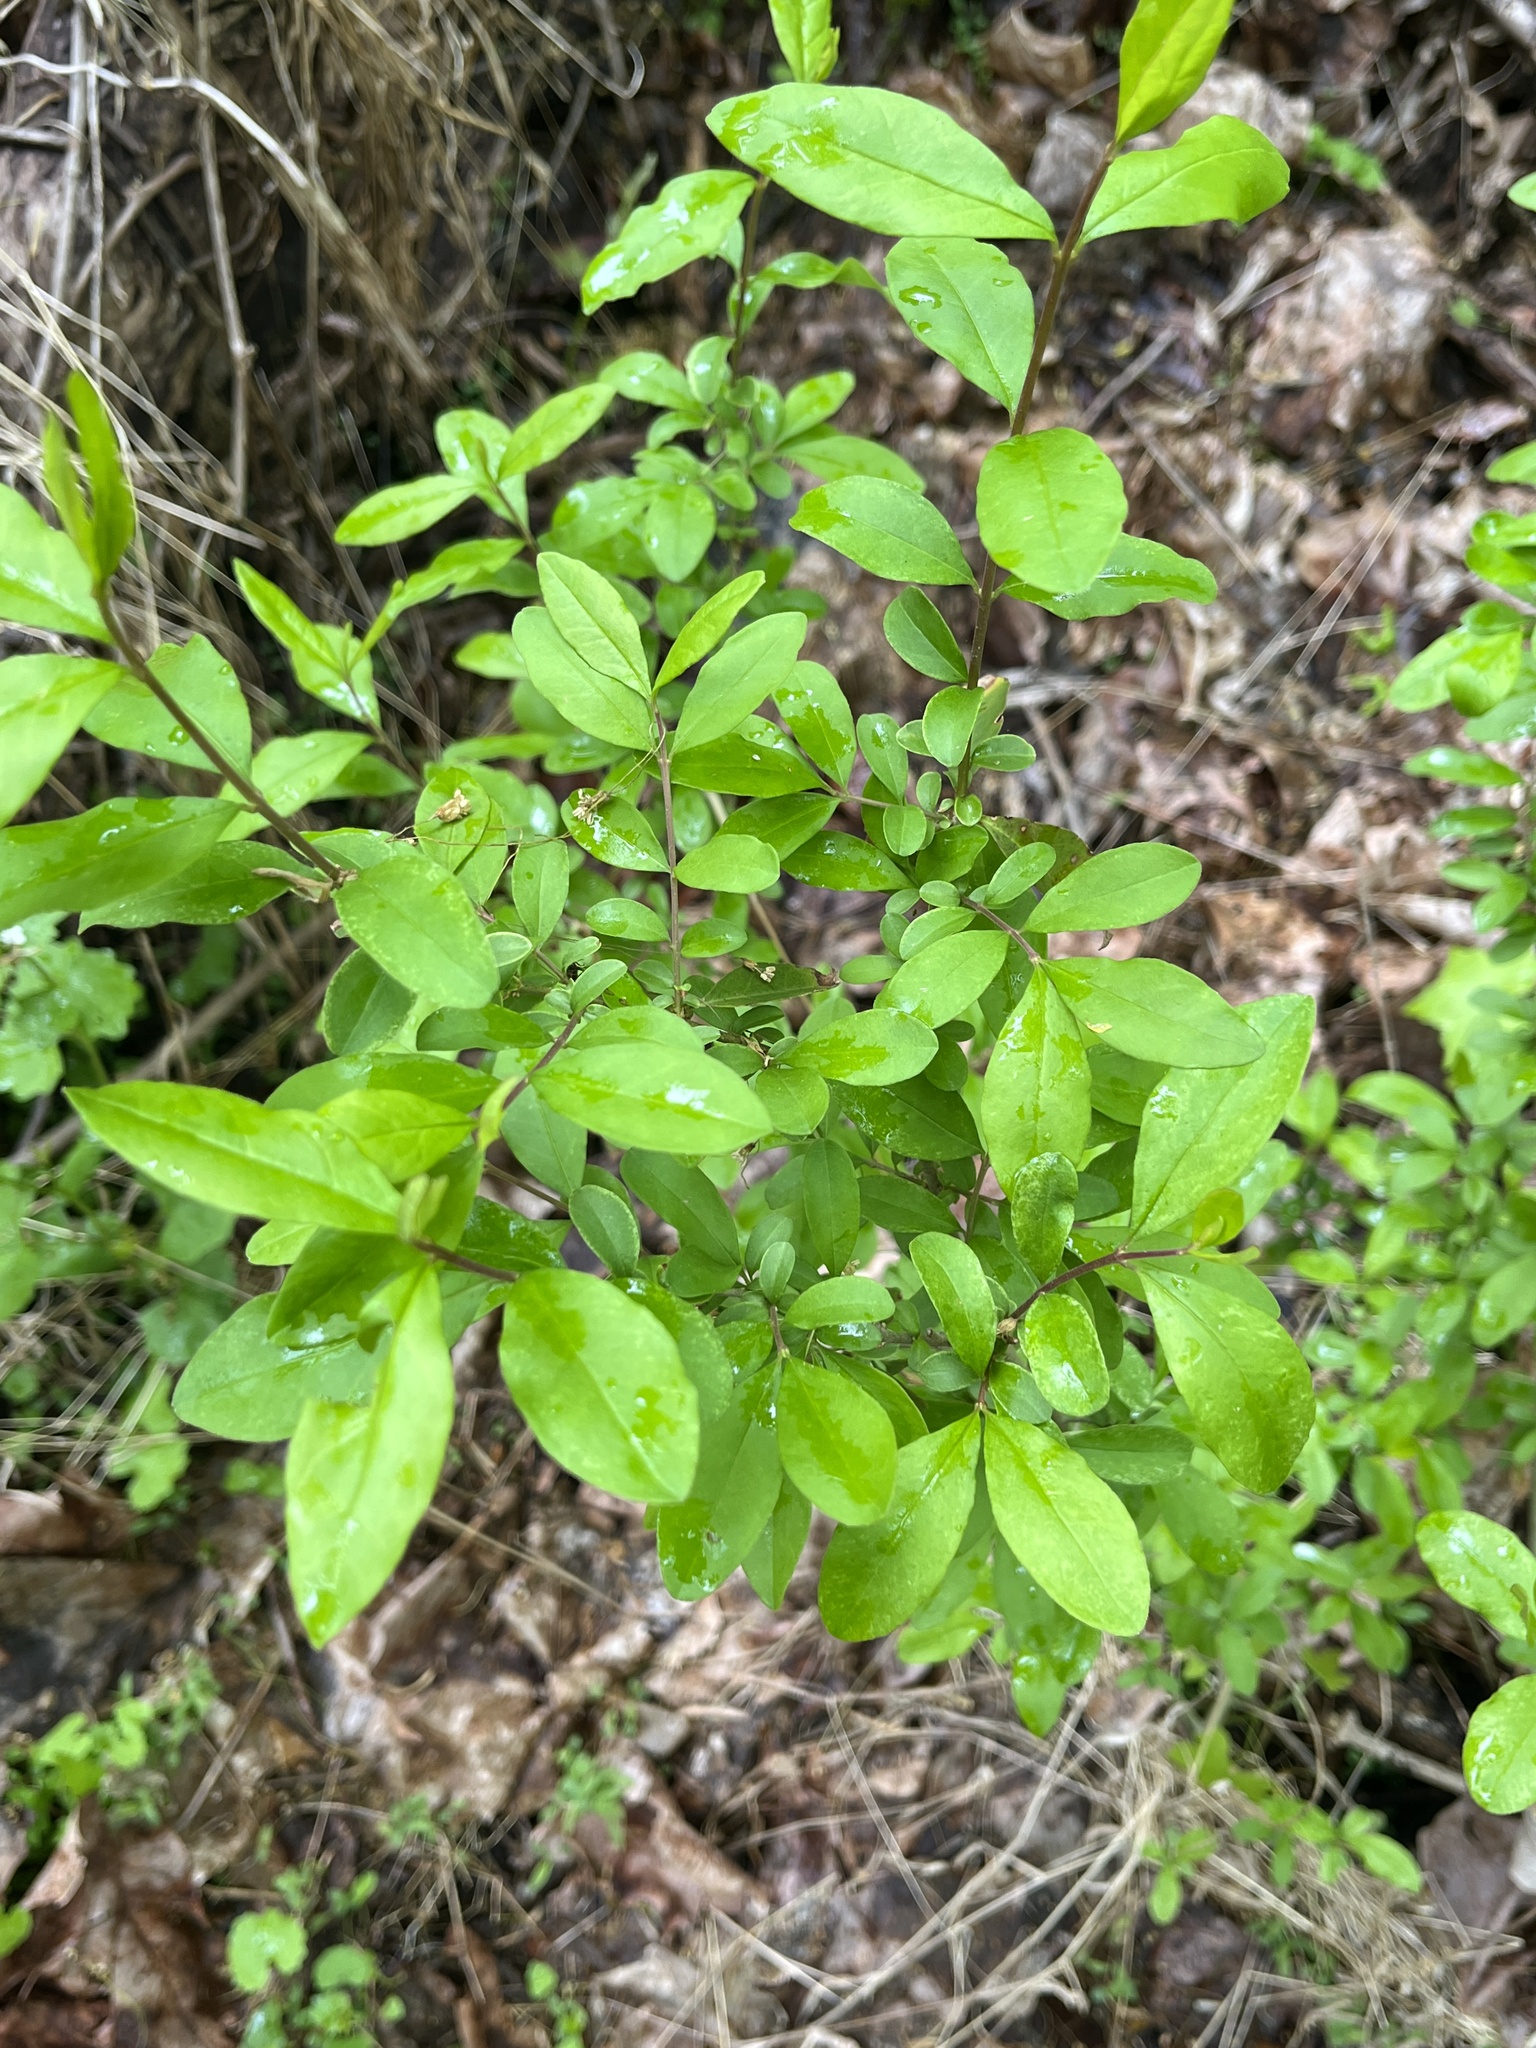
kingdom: Plantae
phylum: Tracheophyta
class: Magnoliopsida
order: Lamiales
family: Oleaceae
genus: Ligustrum
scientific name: Ligustrum obtusifolium
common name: Border privet
